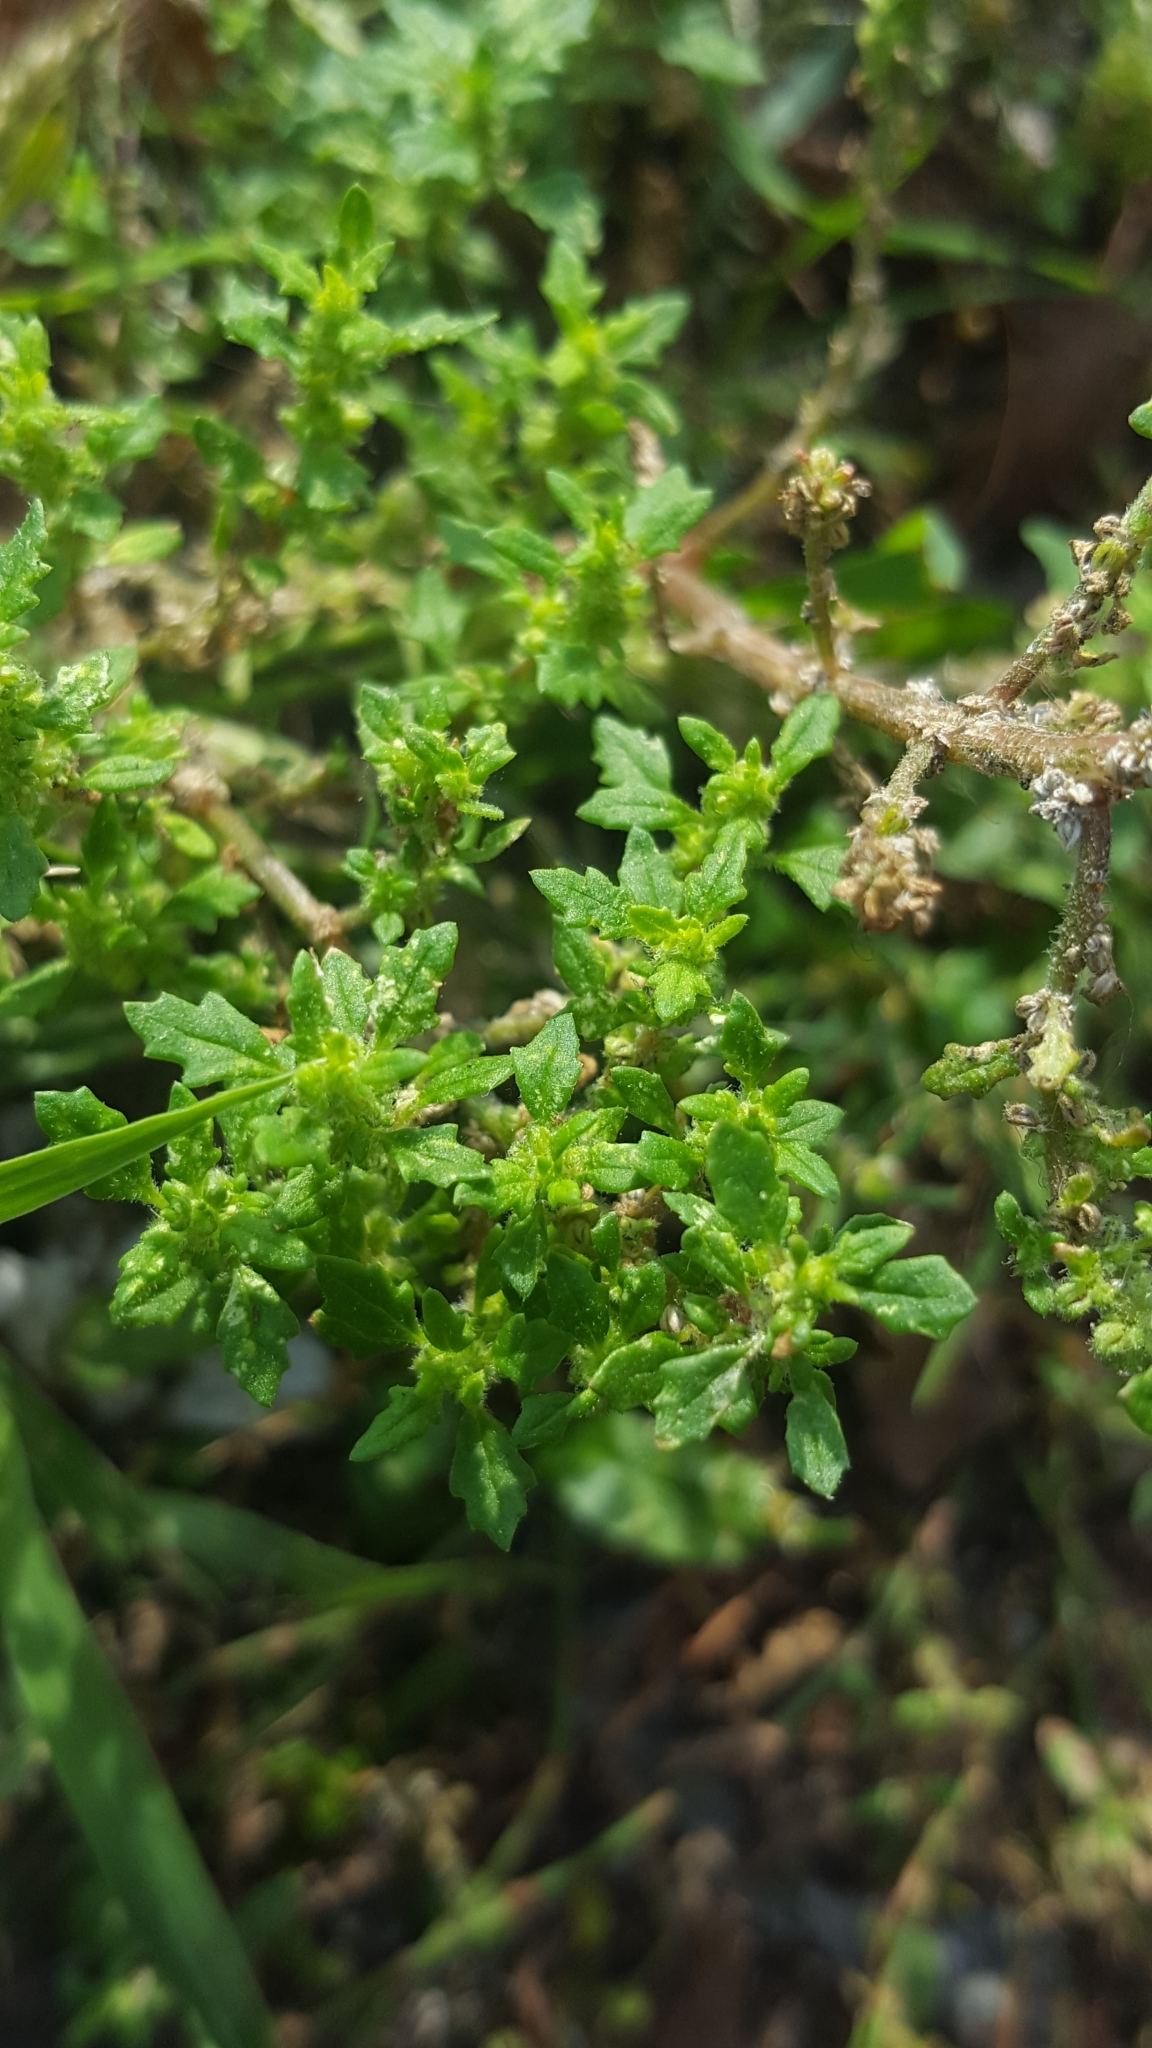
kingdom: Plantae
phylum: Tracheophyta
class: Magnoliopsida
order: Caryophyllales
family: Amaranthaceae
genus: Dysphania
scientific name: Dysphania pumilio
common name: Clammy goosefoot
